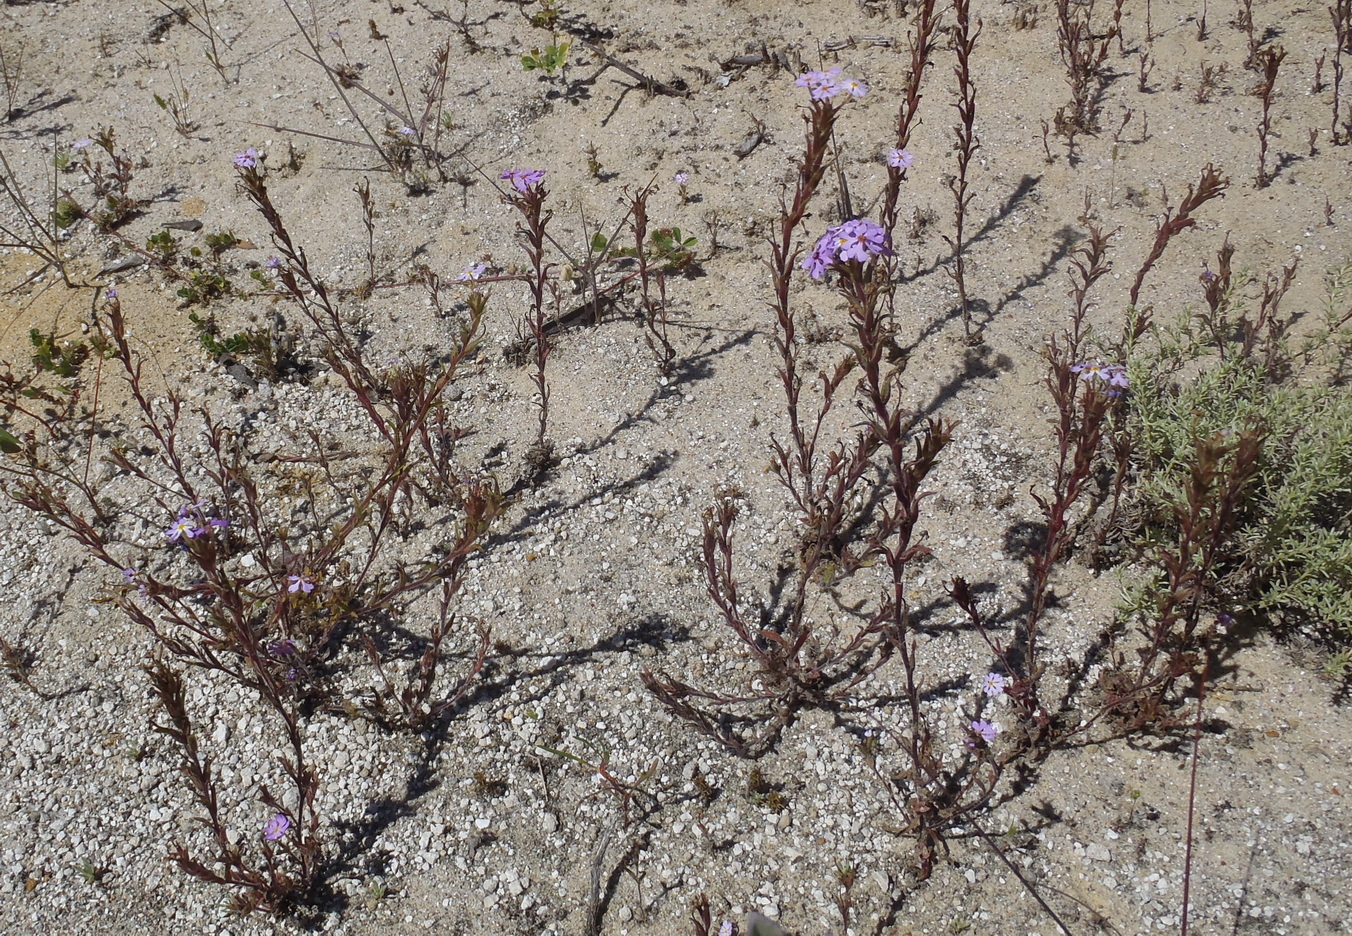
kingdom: Plantae
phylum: Tracheophyta
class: Magnoliopsida
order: Lamiales
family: Scrophulariaceae
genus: Zaluzianskya
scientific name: Zaluzianskya villosa
